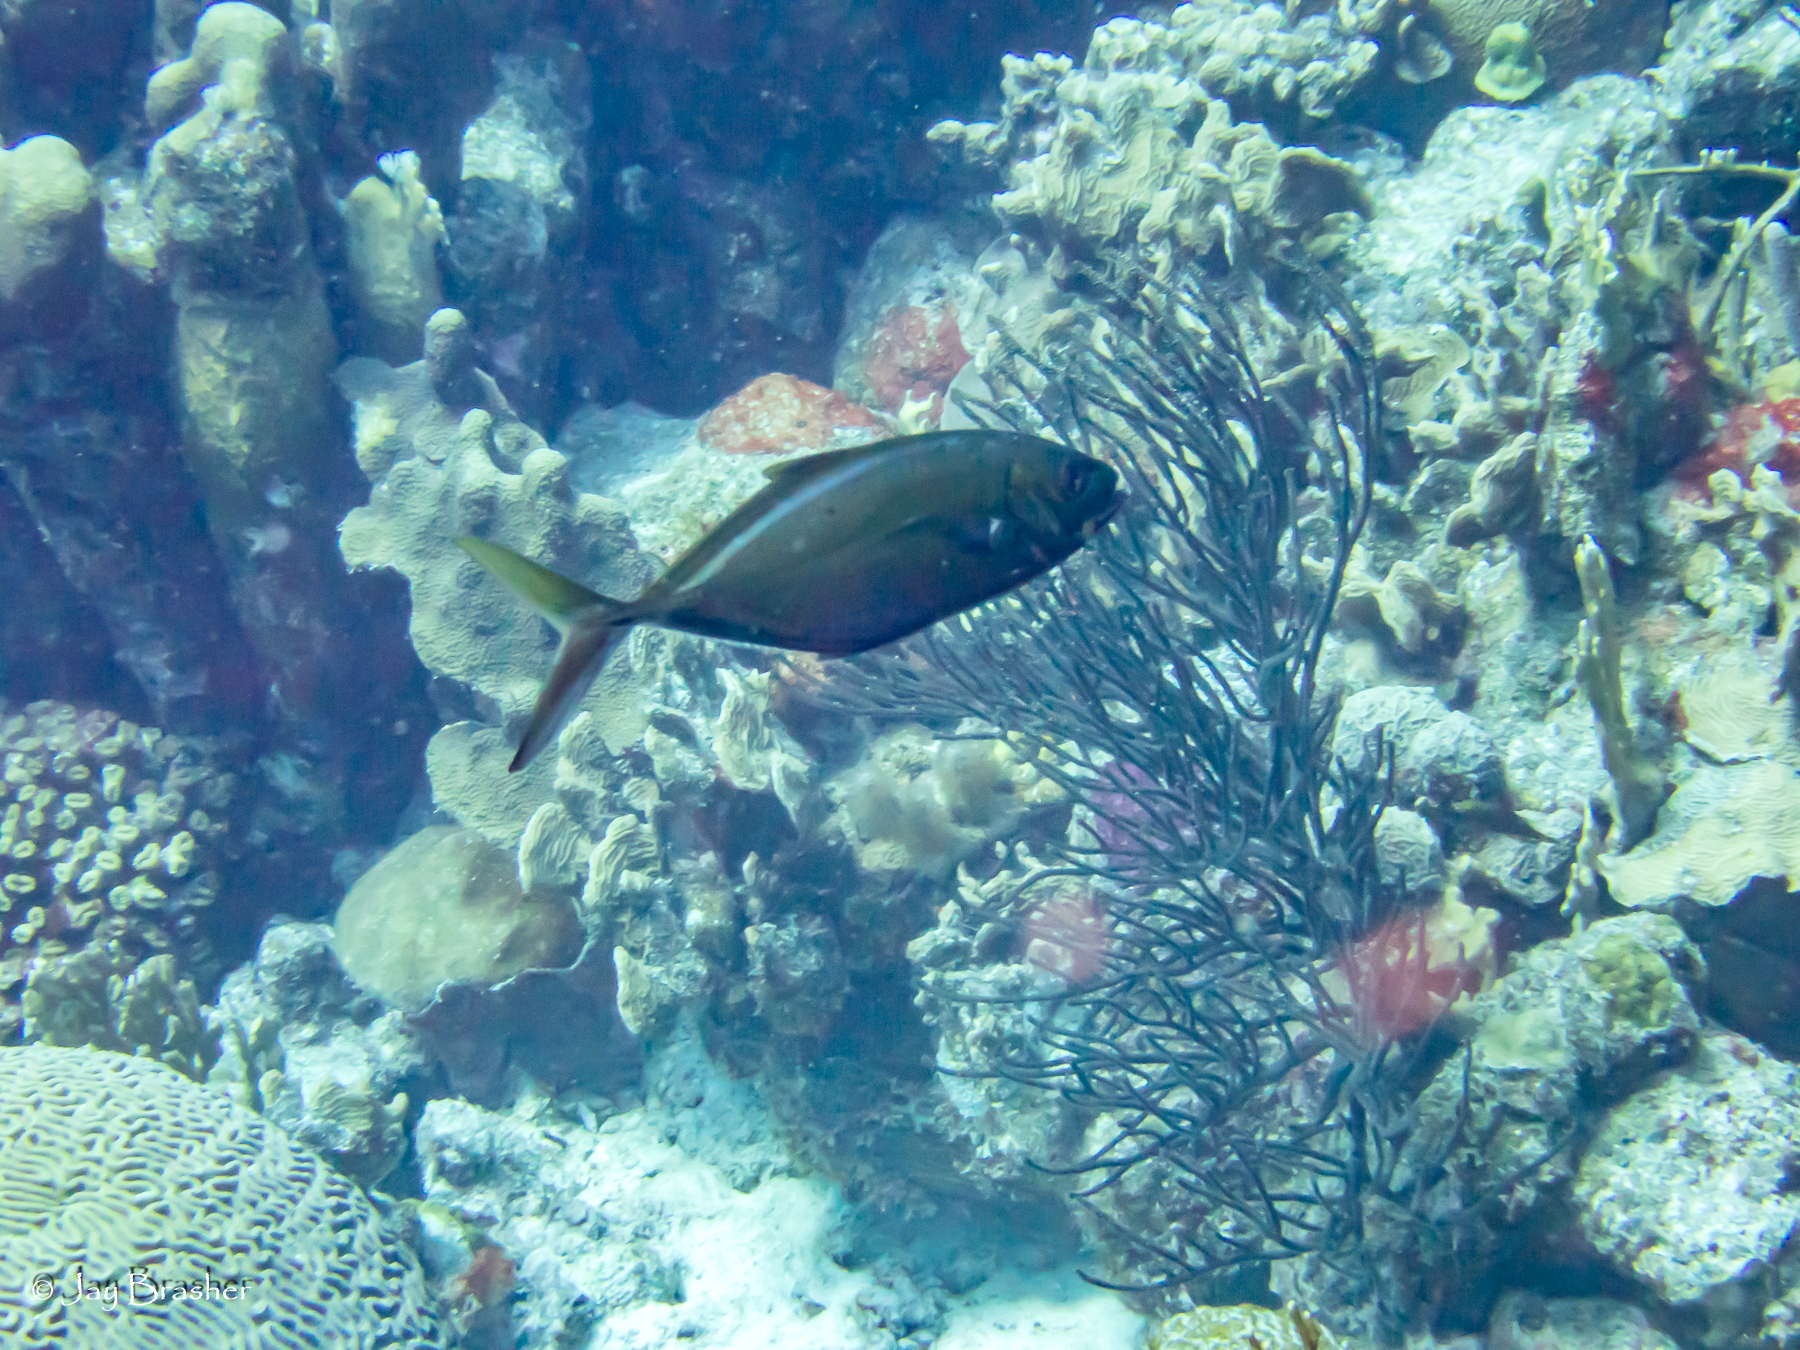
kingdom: Animalia
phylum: Chordata
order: Perciformes
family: Carangidae
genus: Caranx
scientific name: Caranx ruber
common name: Bar jack
